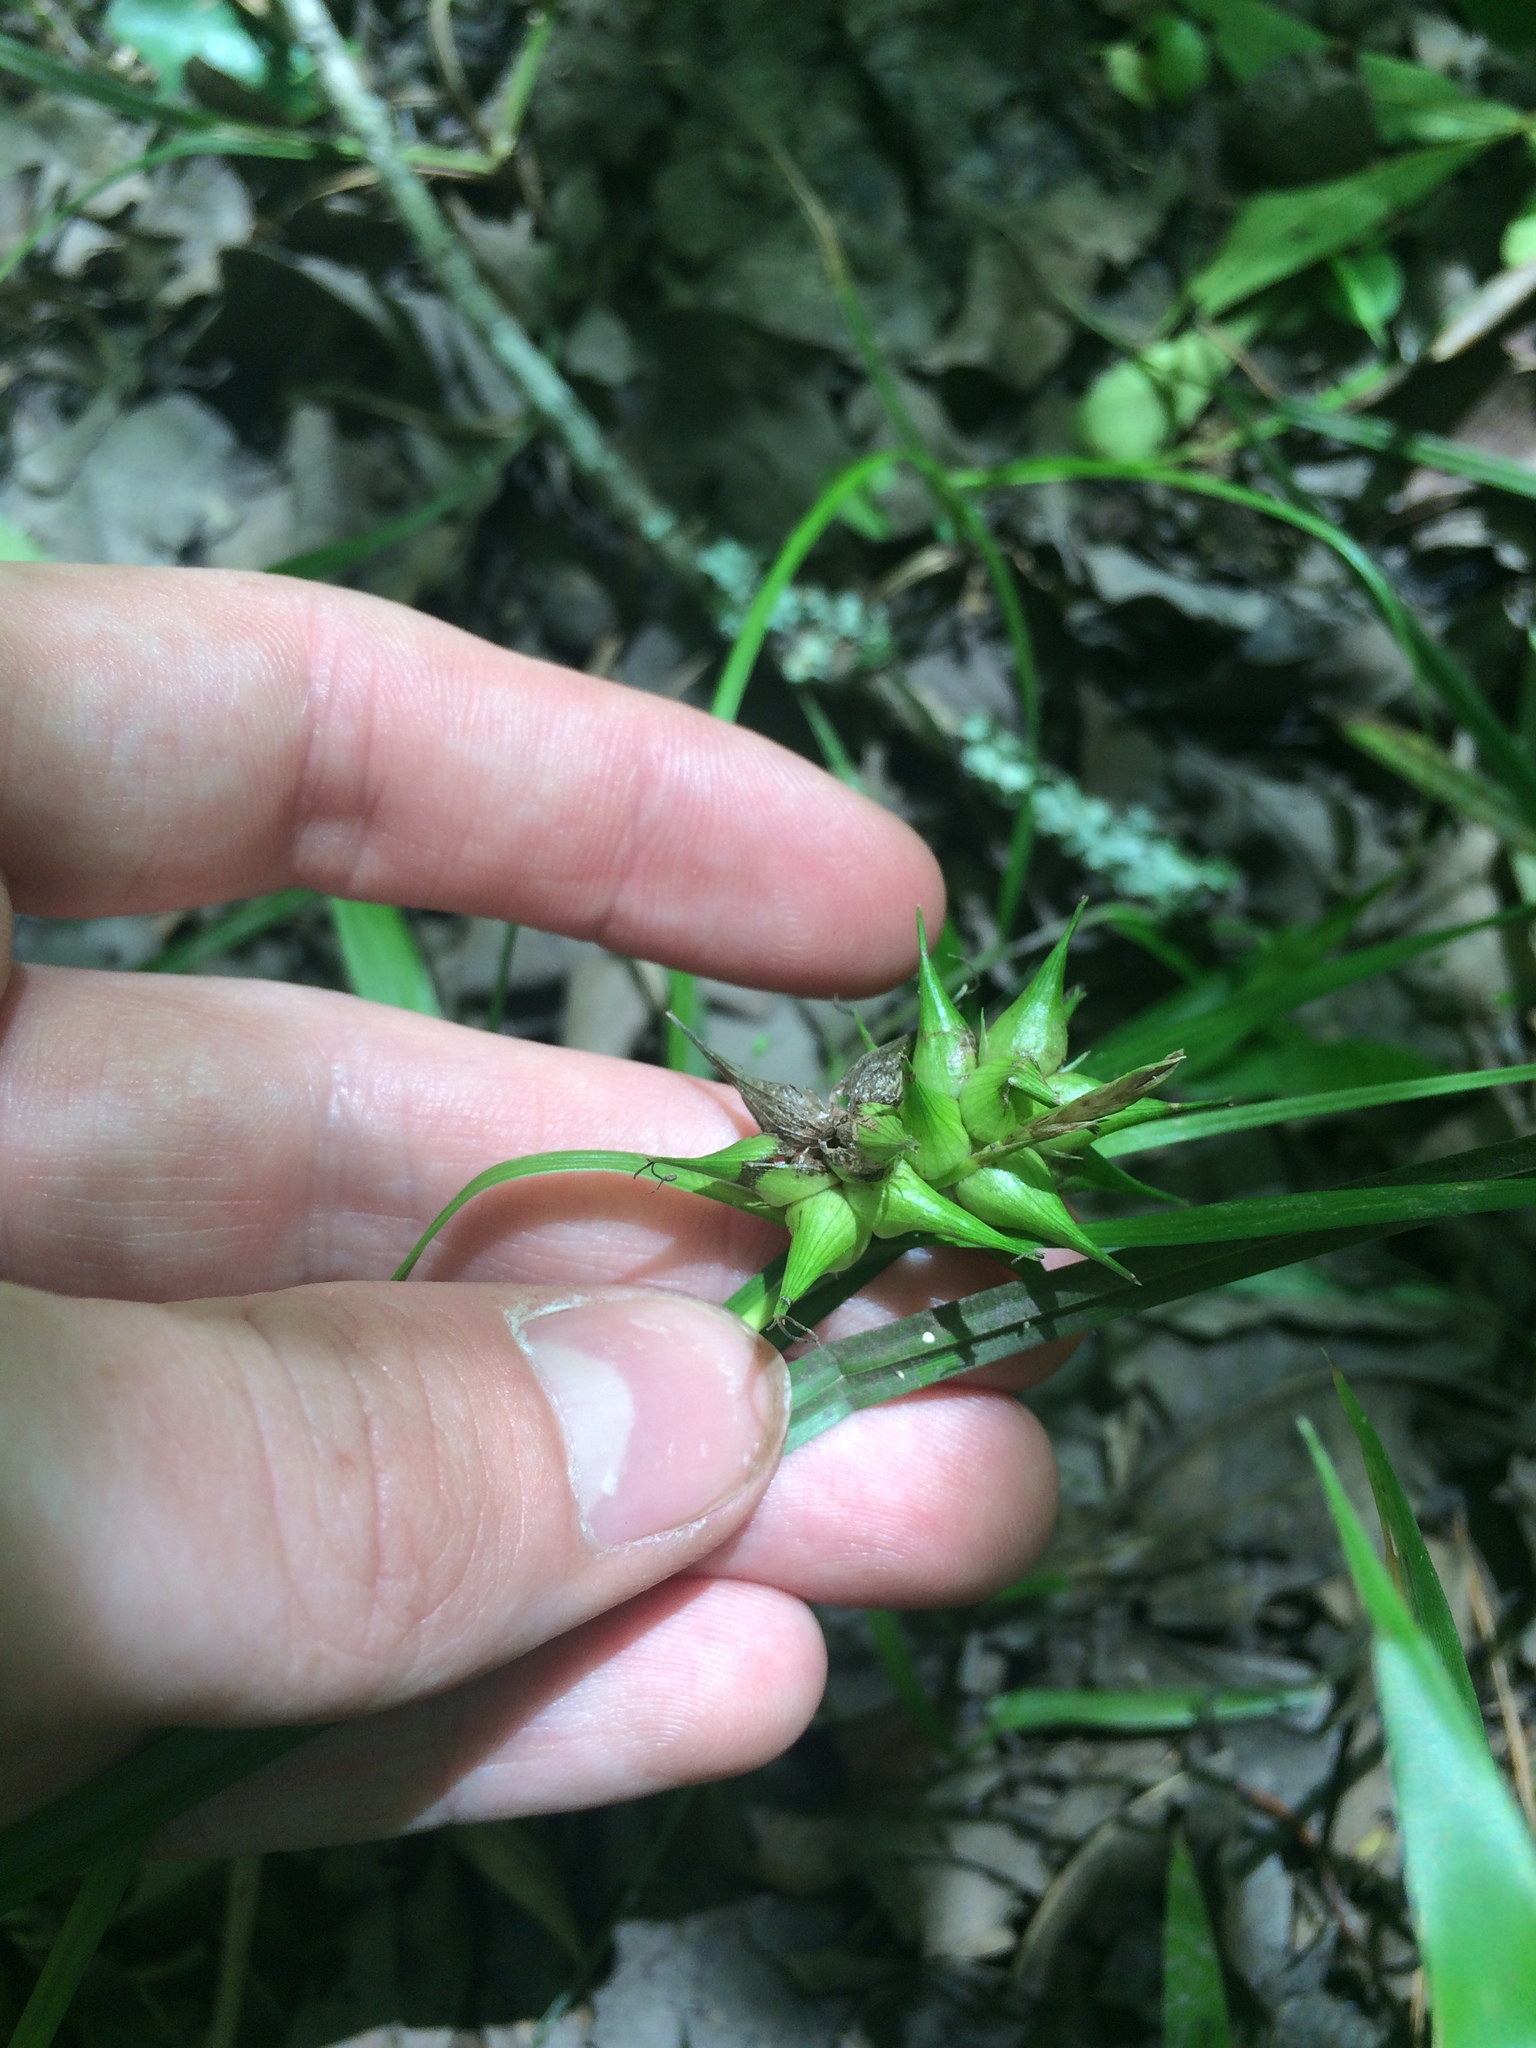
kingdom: Plantae
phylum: Tracheophyta
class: Liliopsida
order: Poales
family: Cyperaceae
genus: Carex
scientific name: Carex intumescens
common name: Greater bladder sedge
